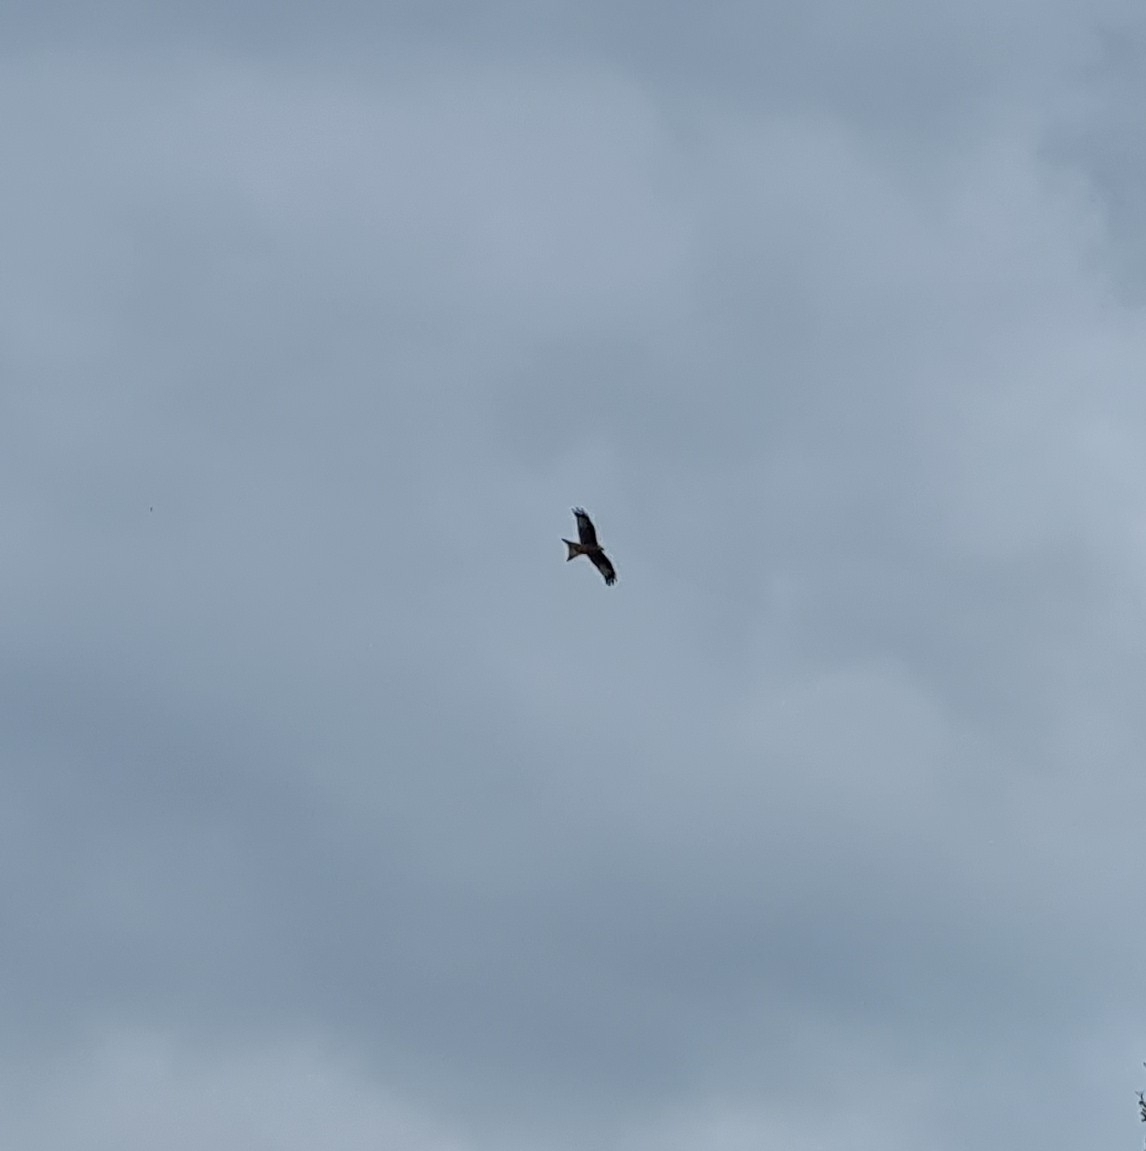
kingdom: Animalia
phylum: Chordata
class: Aves
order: Accipitriformes
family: Accipitridae
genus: Milvus
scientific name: Milvus milvus
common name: Red kite
